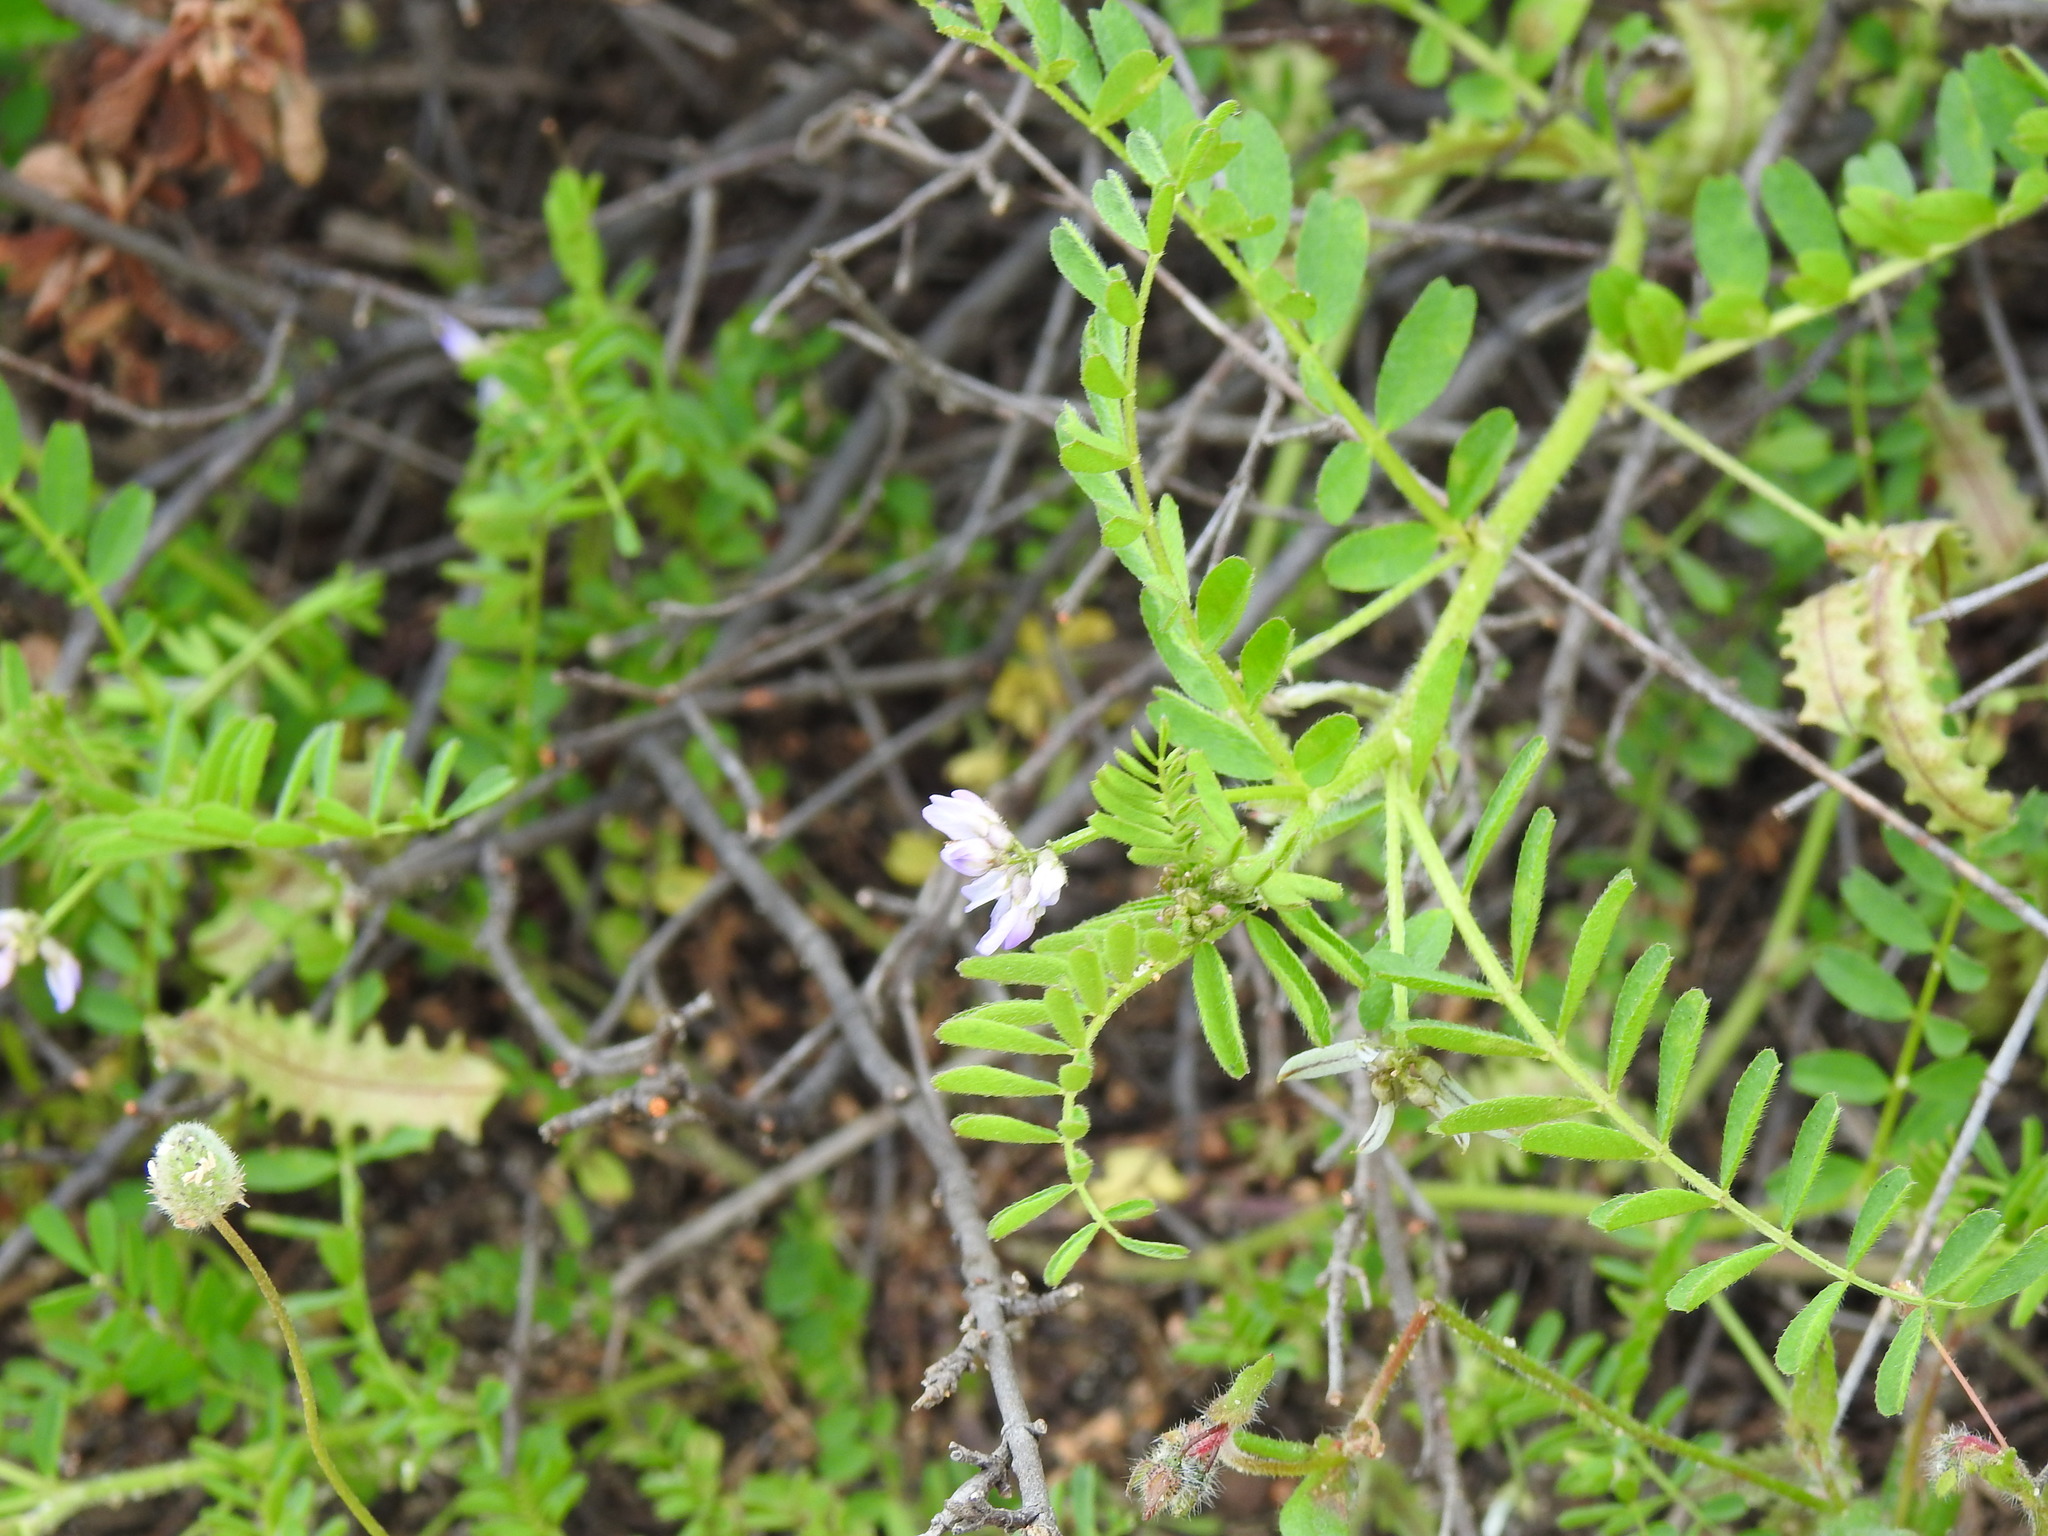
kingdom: Plantae
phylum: Tracheophyta
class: Magnoliopsida
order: Fabales
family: Fabaceae
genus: Biserrula
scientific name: Biserrula pelecinus
